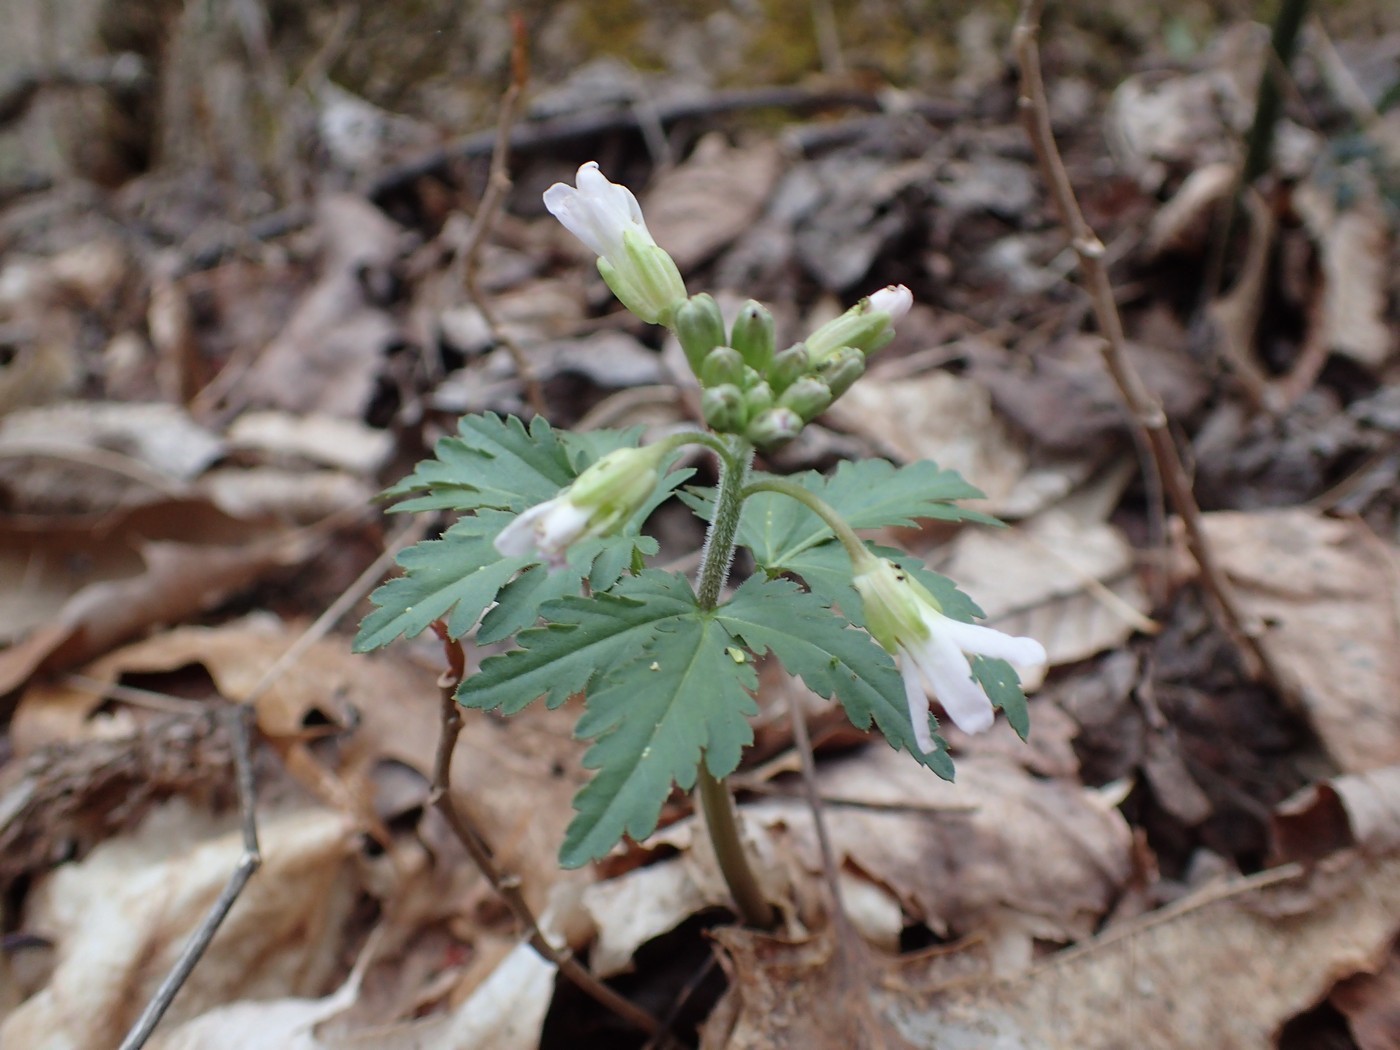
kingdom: Plantae
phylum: Tracheophyta
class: Magnoliopsida
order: Brassicales
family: Brassicaceae
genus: Cardamine
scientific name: Cardamine concatenata
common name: Cut-leaf toothcup
